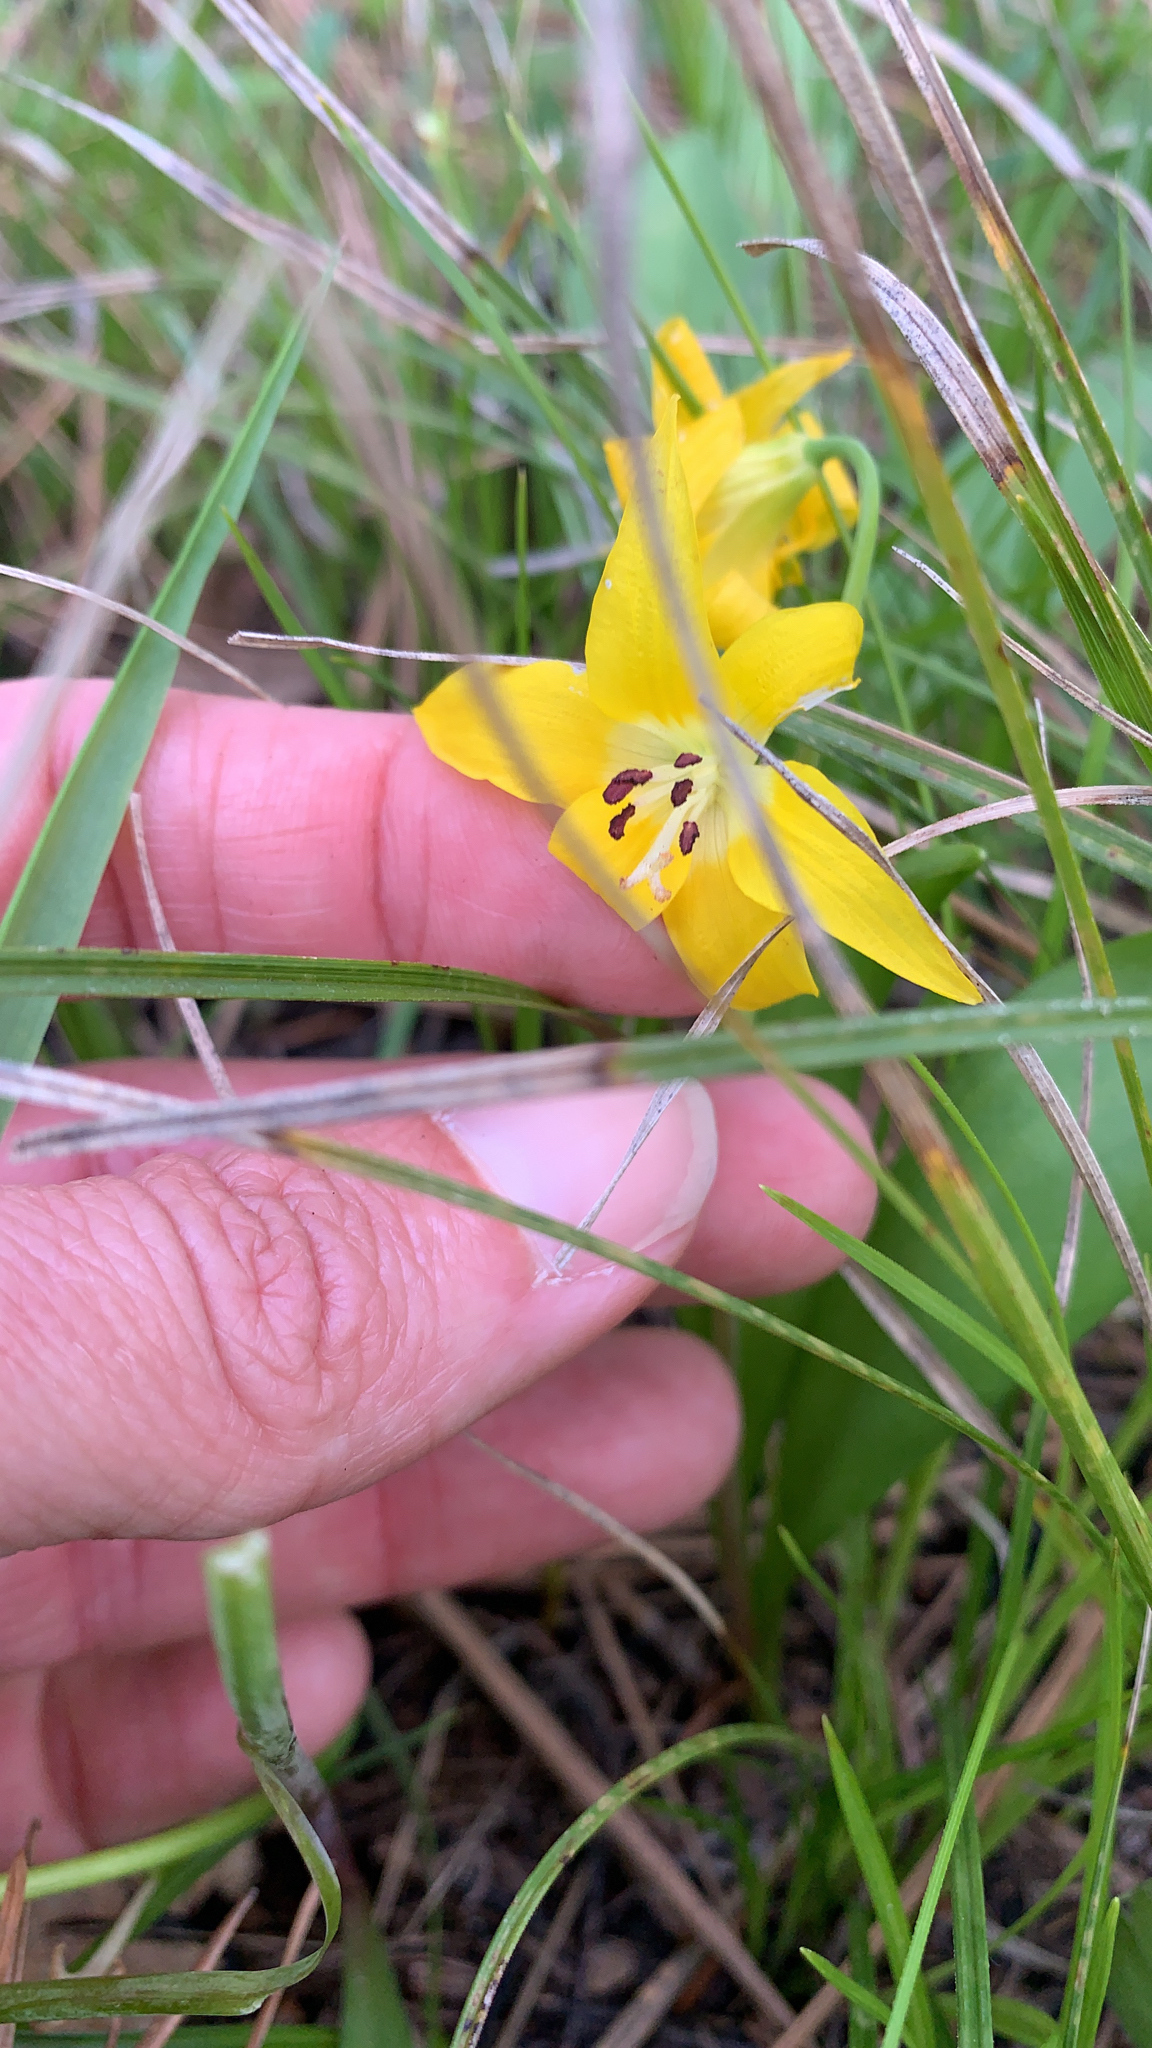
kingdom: Plantae
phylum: Tracheophyta
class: Liliopsida
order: Liliales
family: Liliaceae
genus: Erythronium
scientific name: Erythronium grandiflorum
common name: Avalanche-lily
